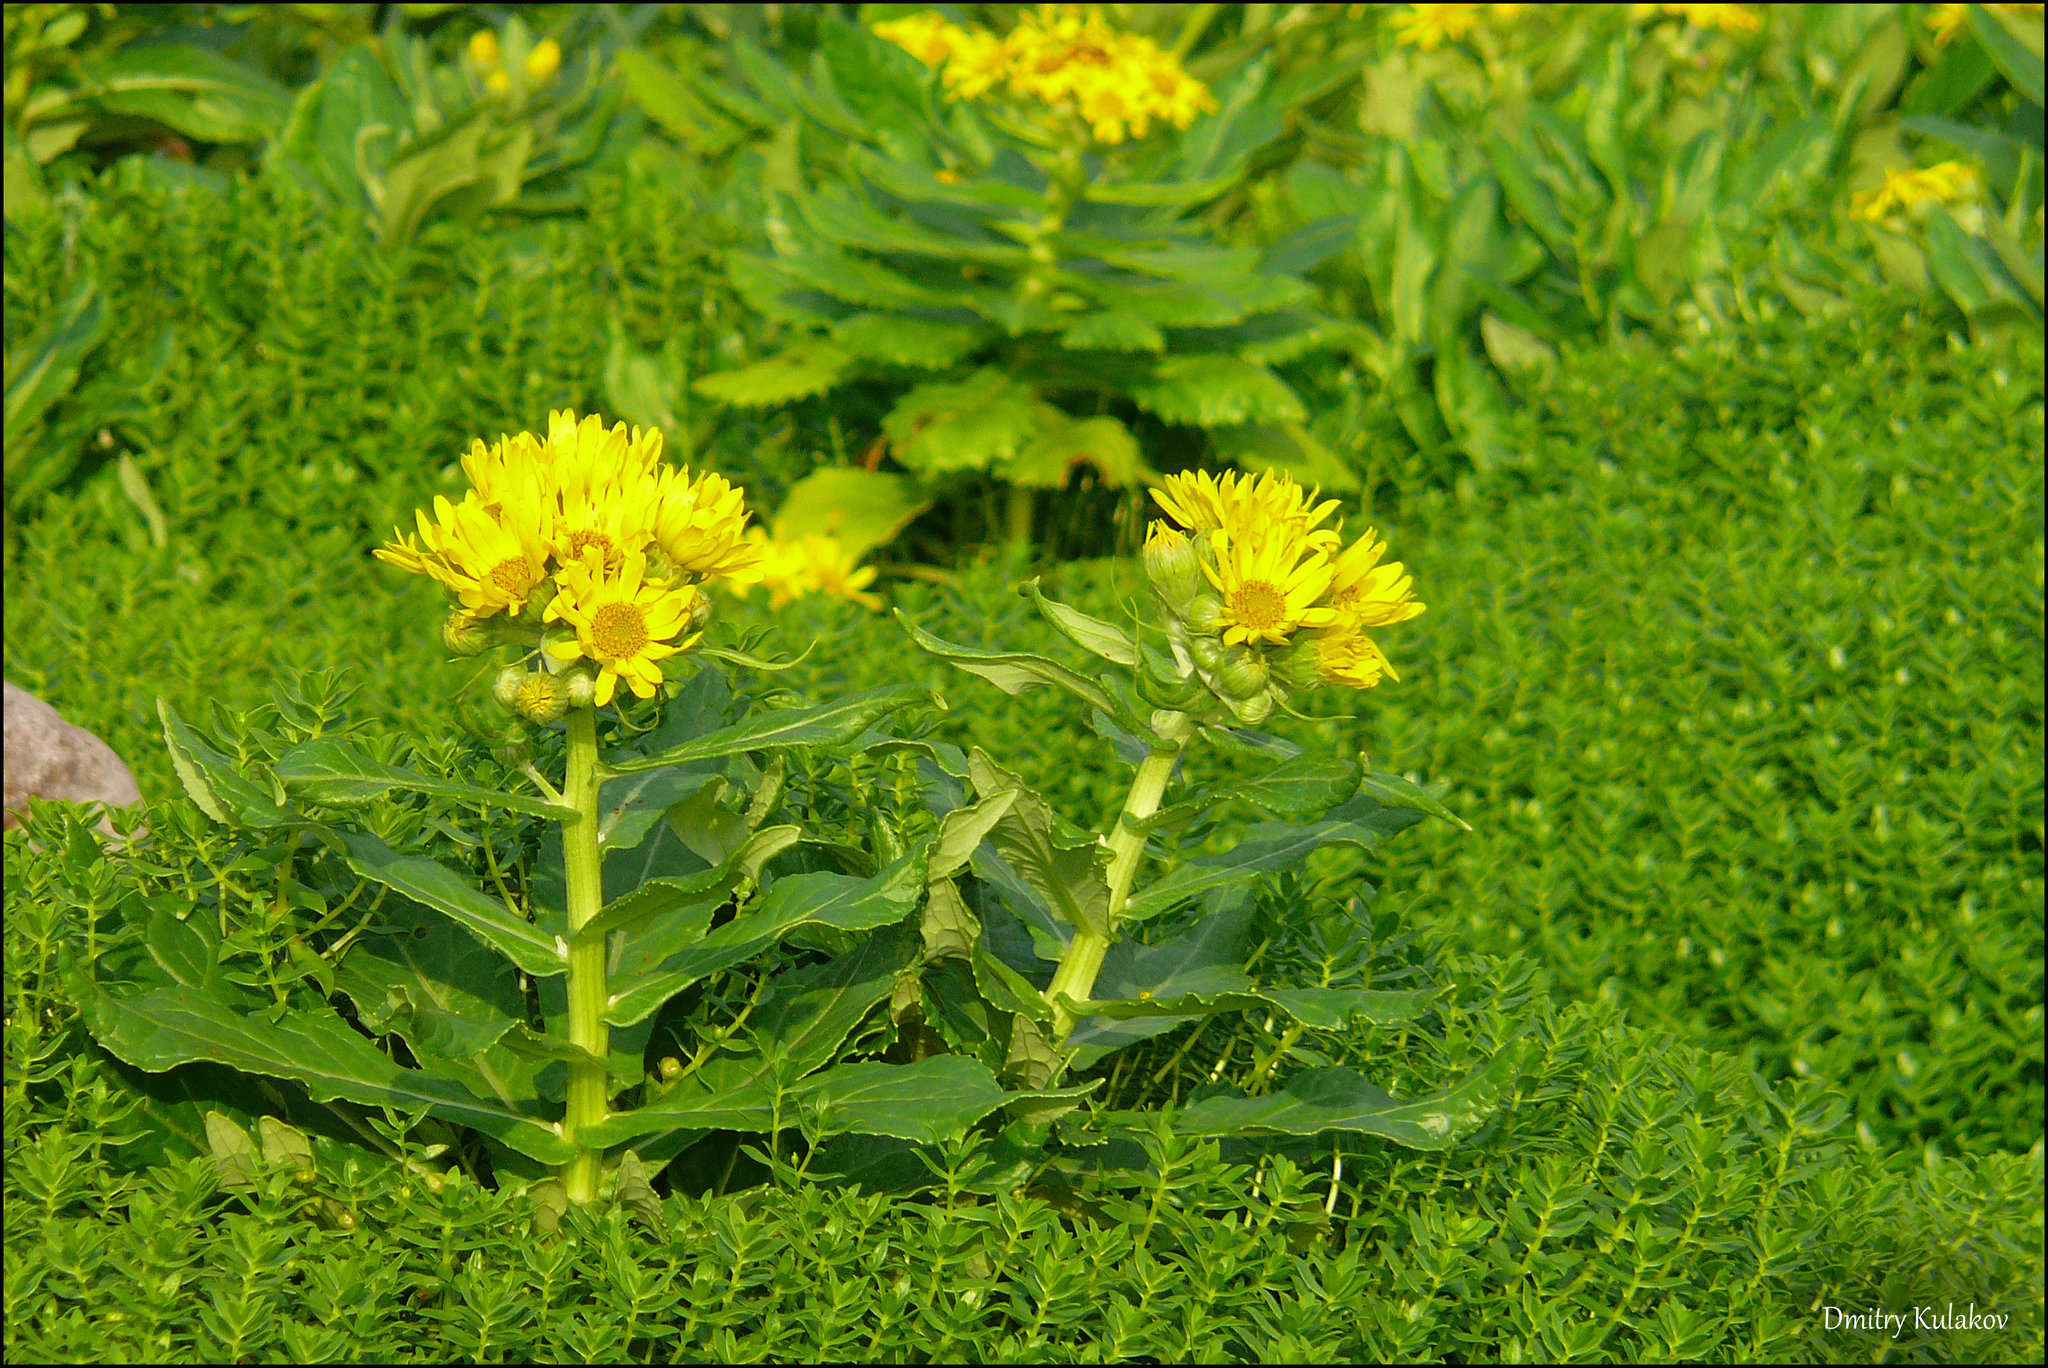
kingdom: Plantae
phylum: Tracheophyta
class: Magnoliopsida
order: Asterales
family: Asteraceae
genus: Jacobaea
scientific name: Jacobaea pseudoarnica
